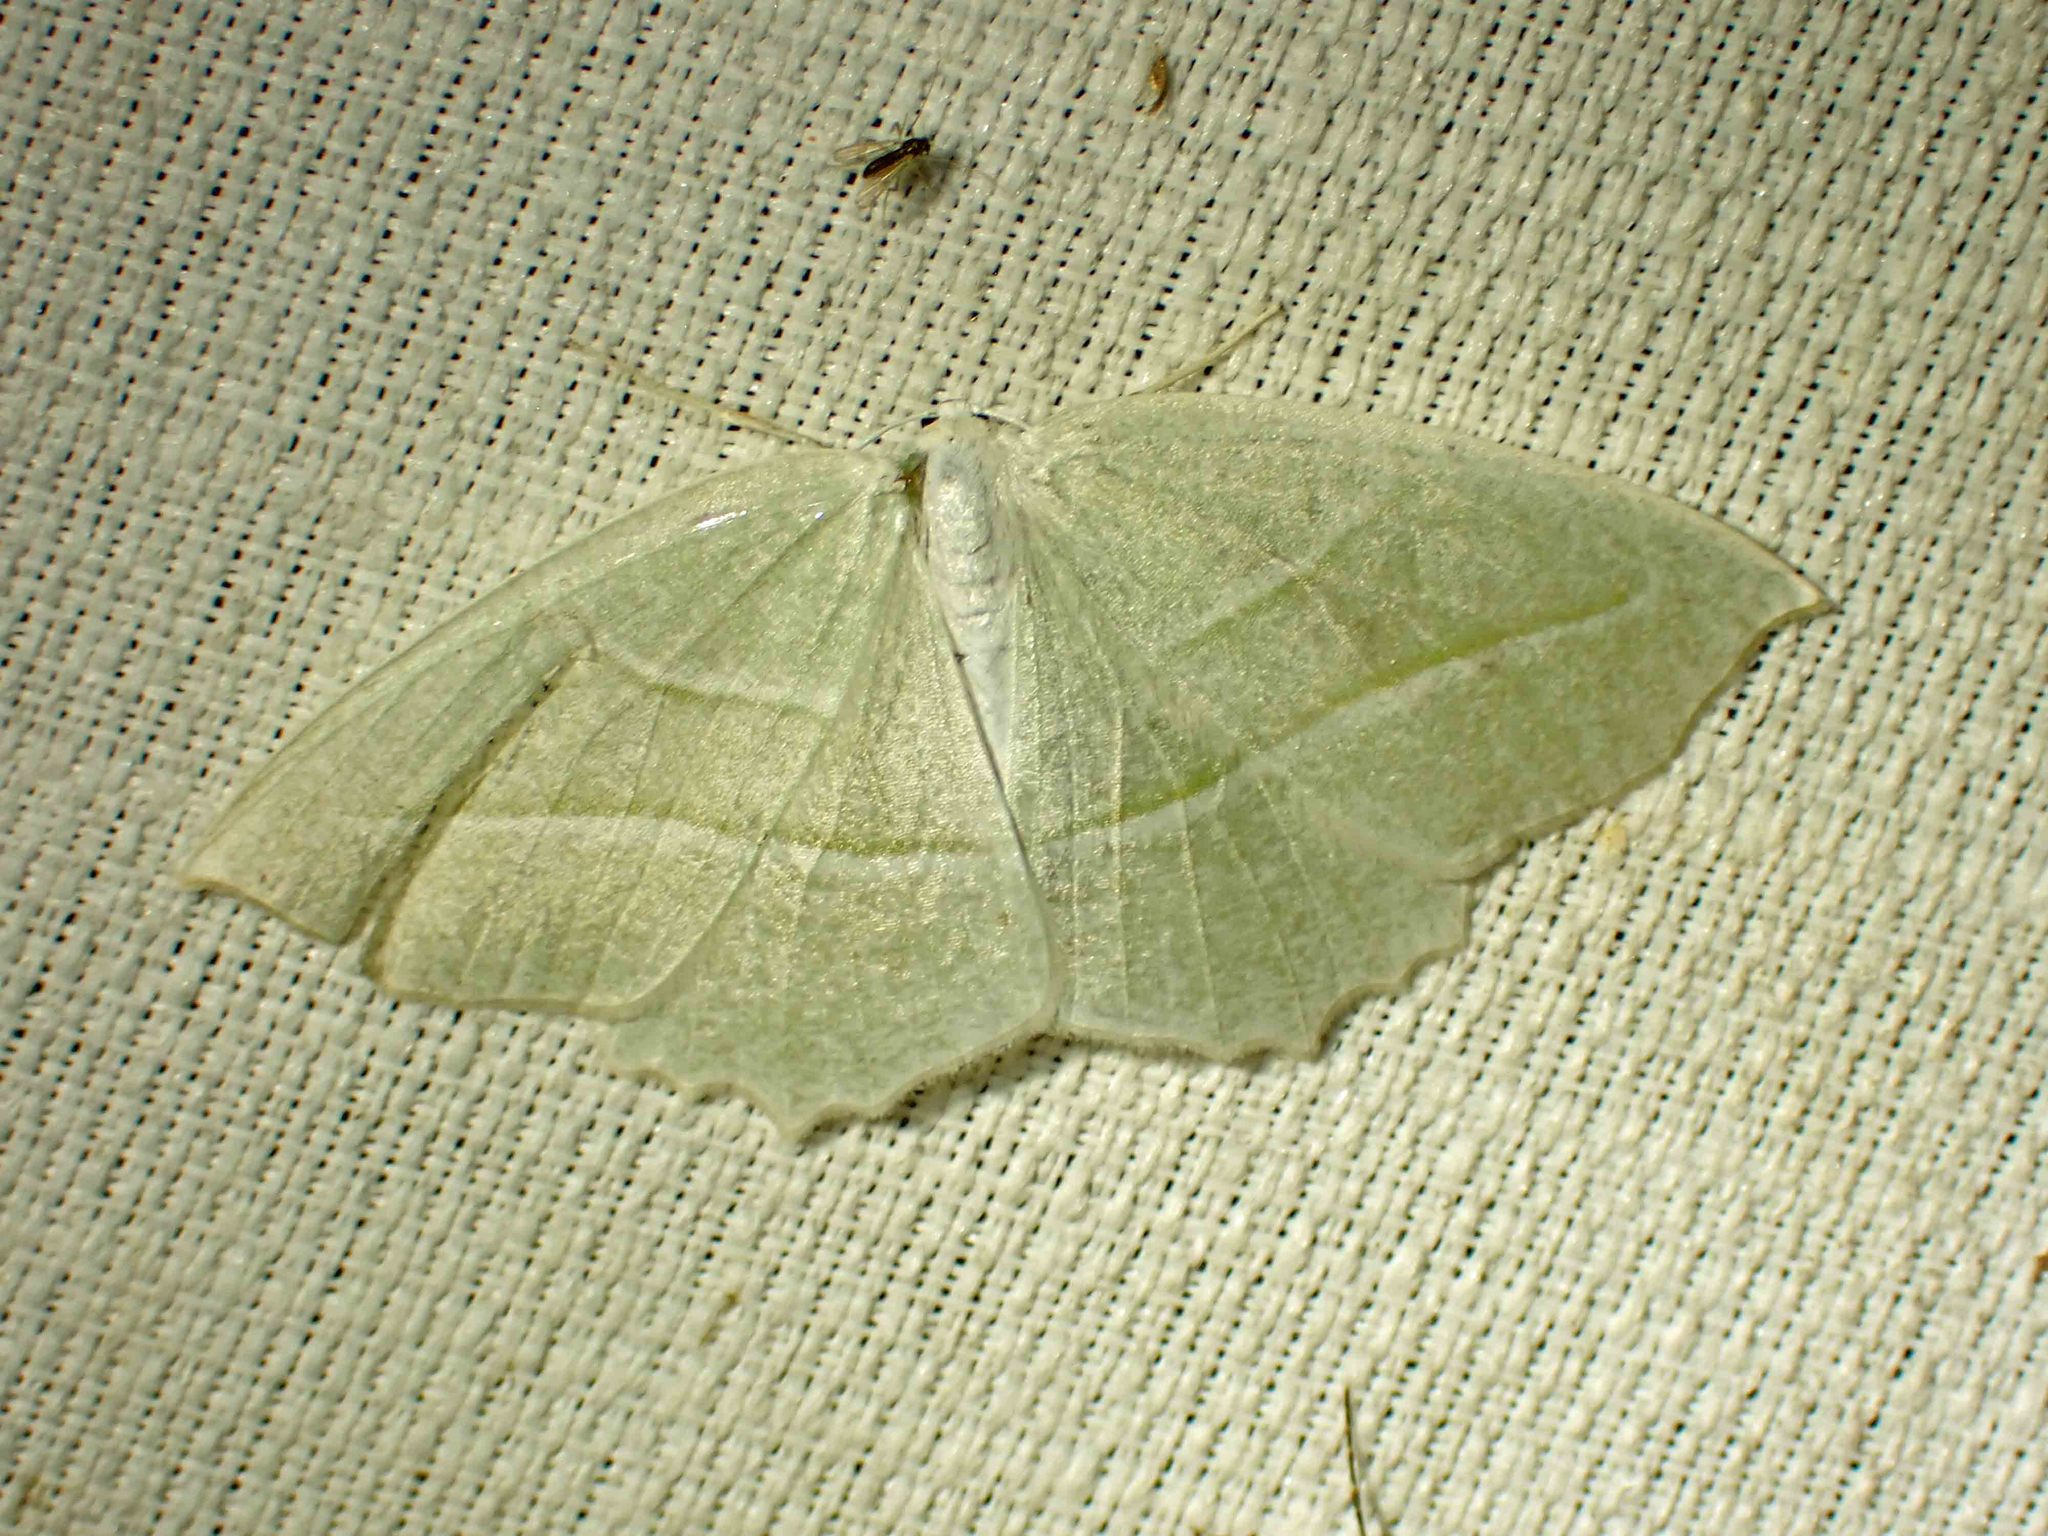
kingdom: Animalia
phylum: Arthropoda
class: Insecta
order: Lepidoptera
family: Geometridae
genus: Campaea
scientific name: Campaea perlata
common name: Fringed looper
